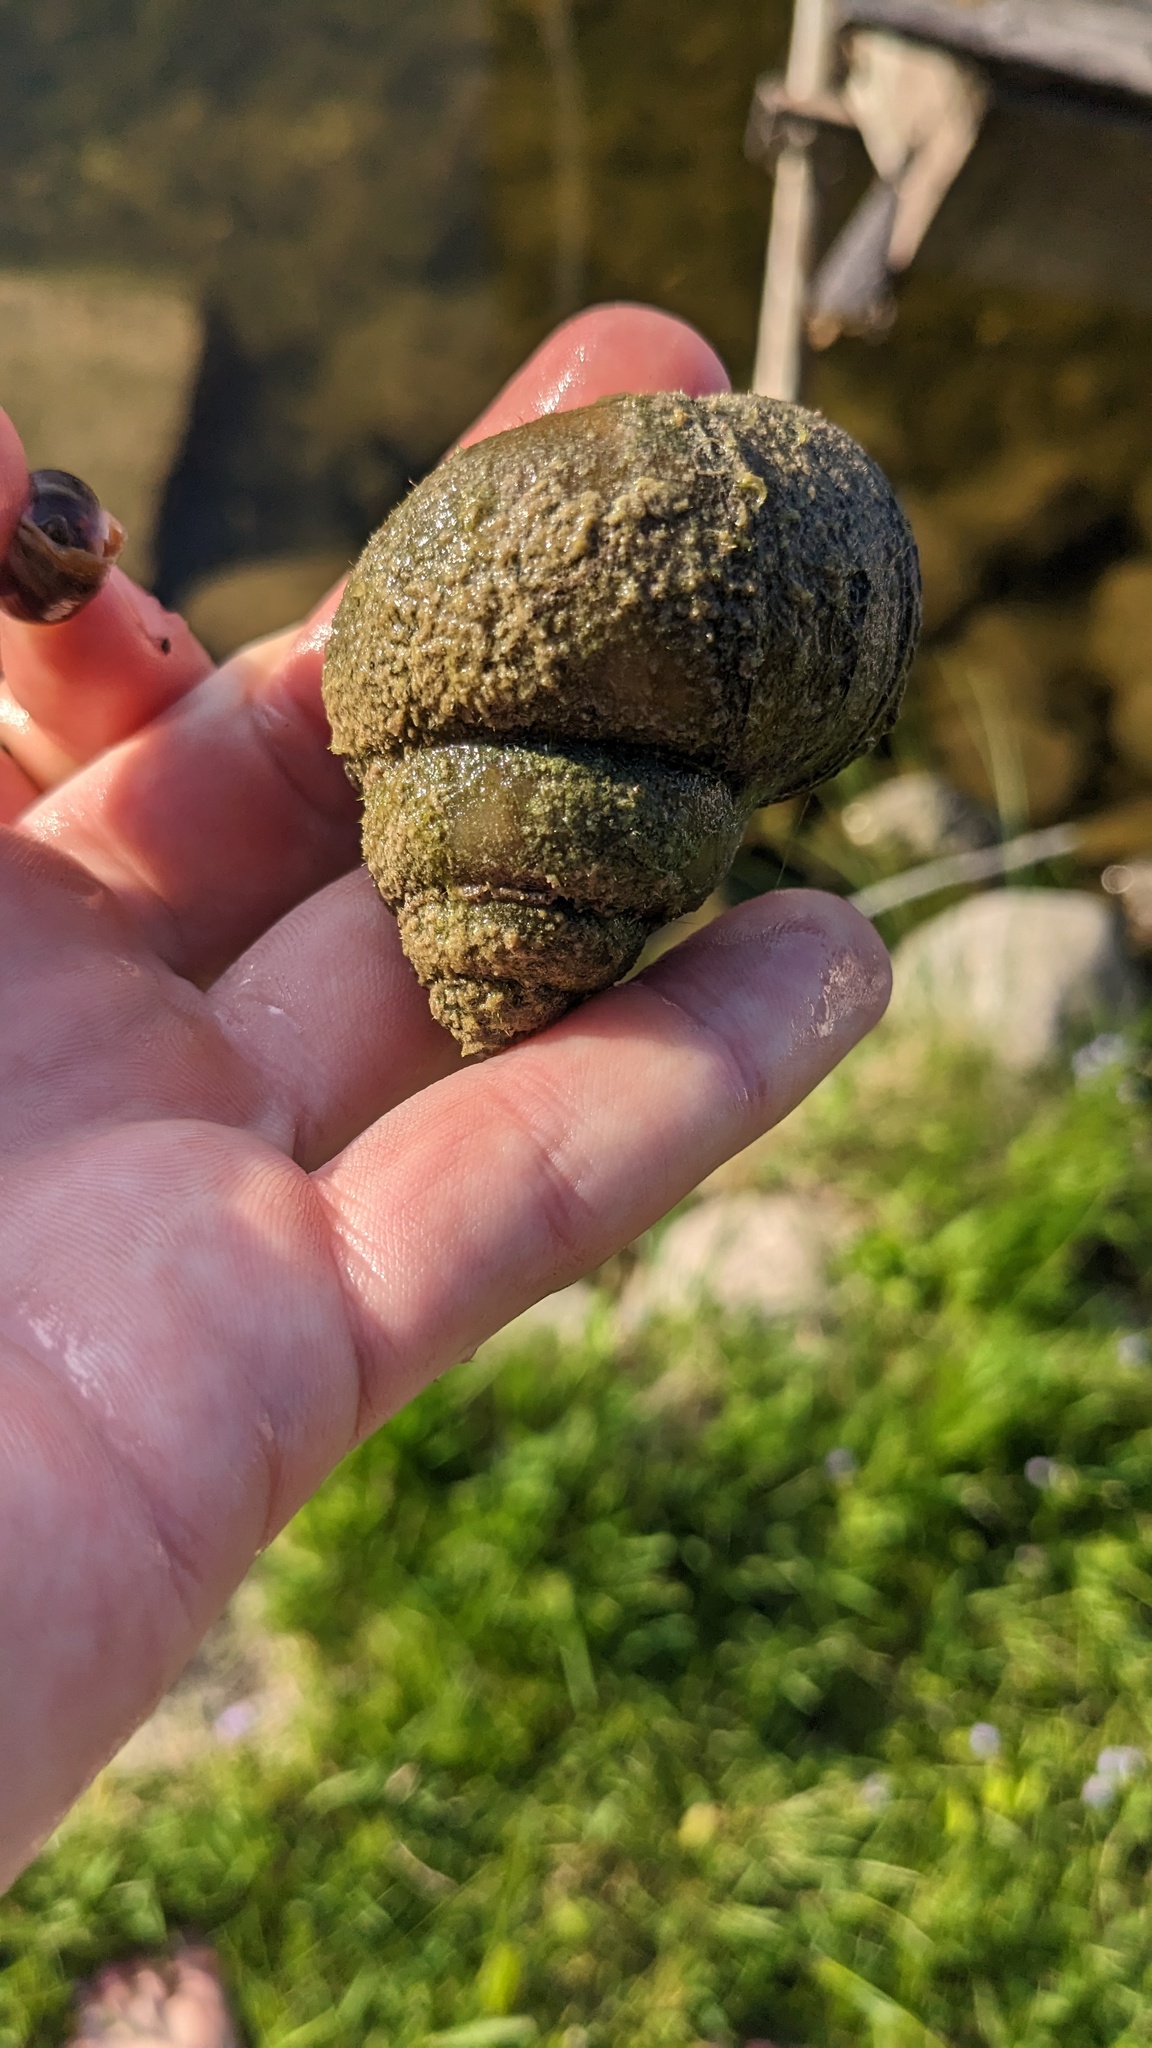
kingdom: Animalia
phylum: Mollusca
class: Gastropoda
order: Architaenioglossa
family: Viviparidae
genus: Cipangopaludina
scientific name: Cipangopaludina chinensis
